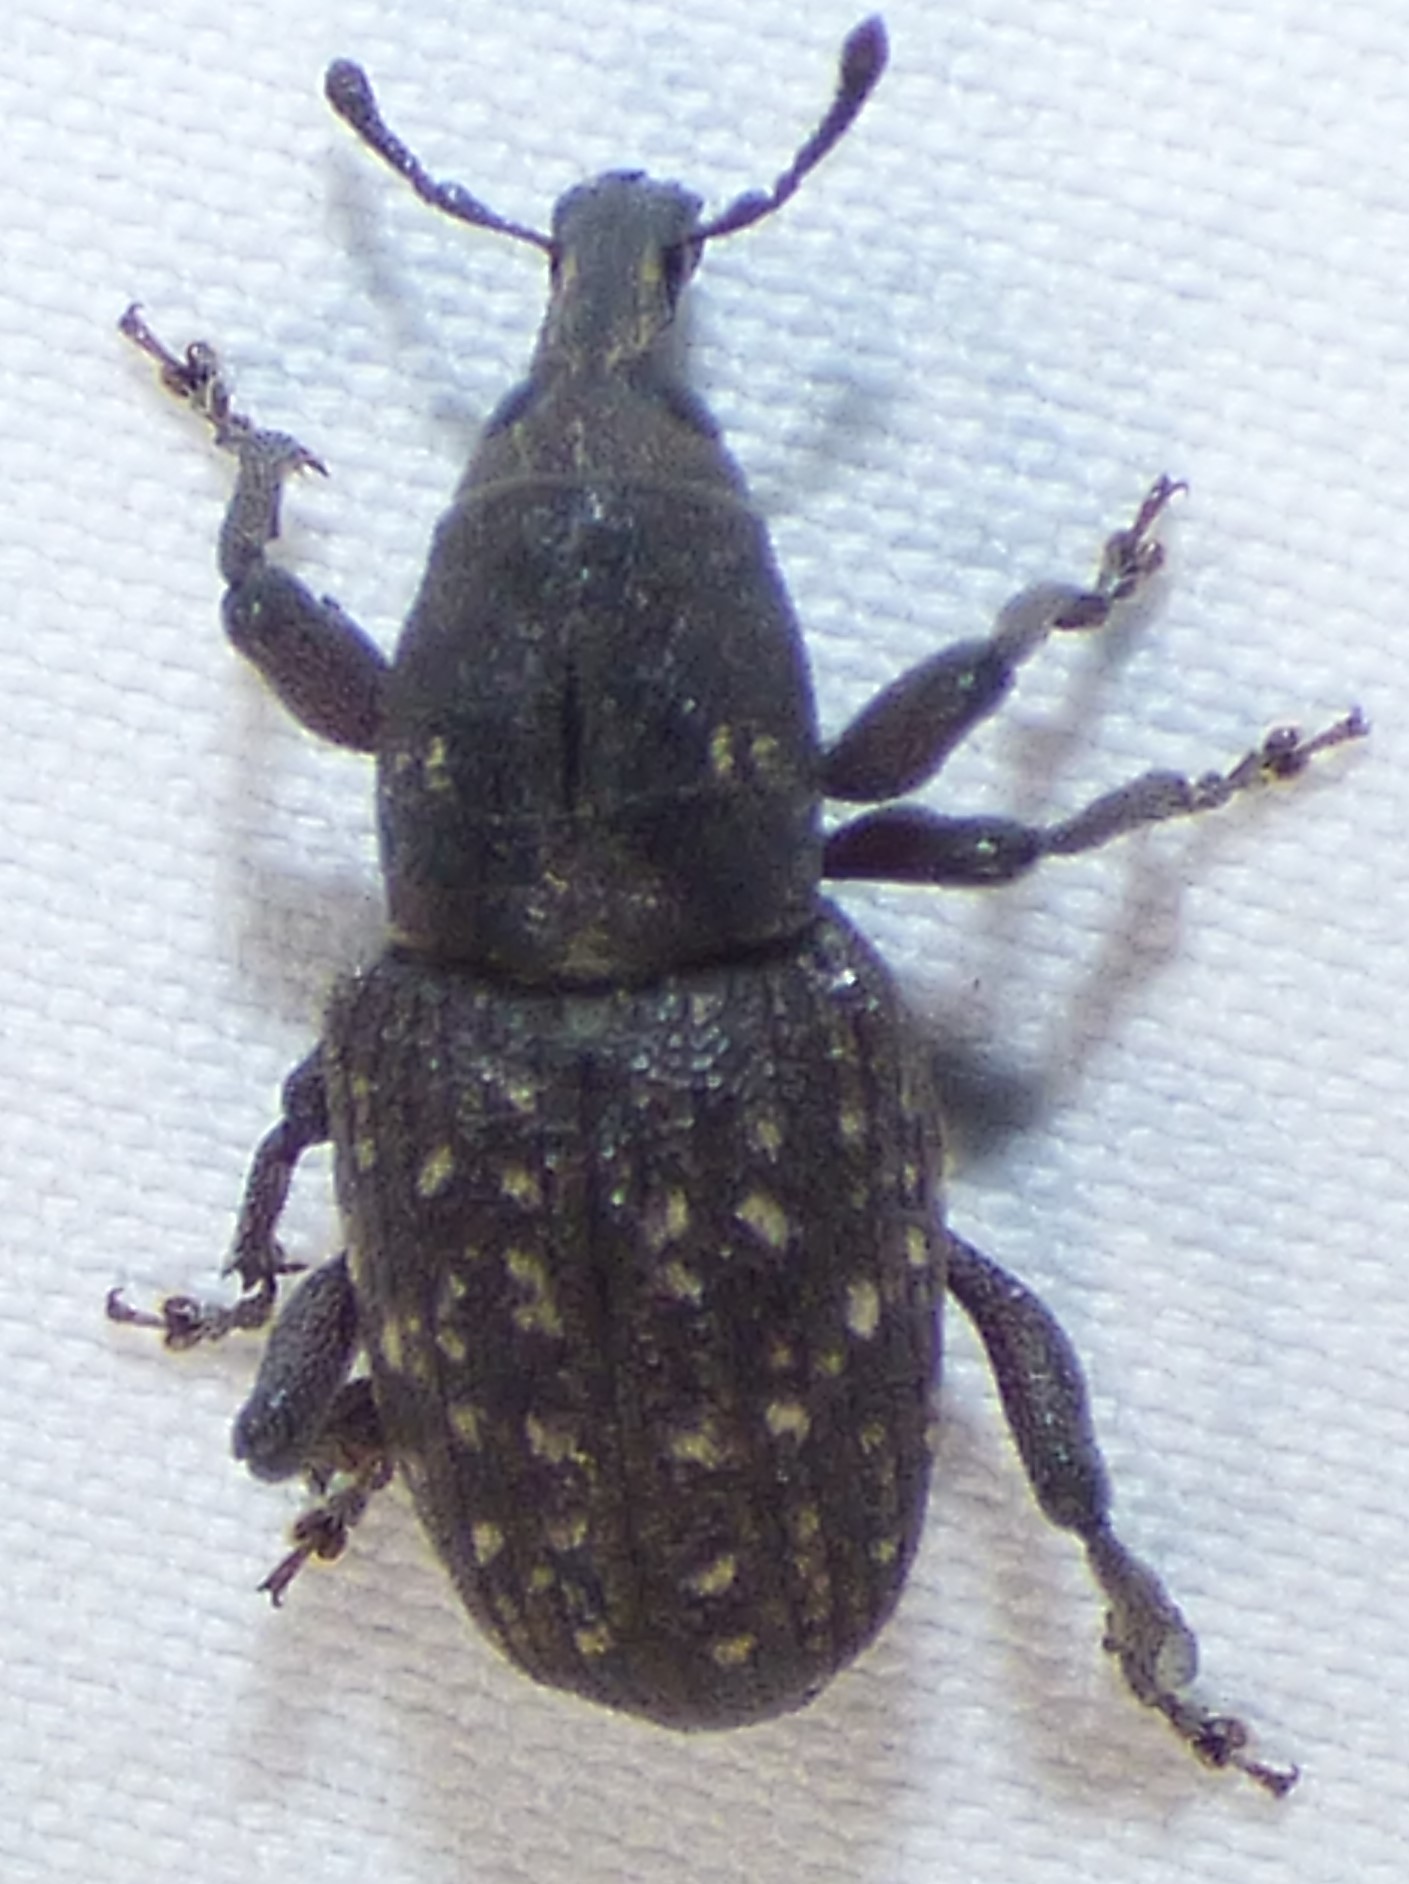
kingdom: Animalia
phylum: Arthropoda
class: Insecta
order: Coleoptera
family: Curculionidae
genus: Pachylobius
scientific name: Pachylobius picivorus
